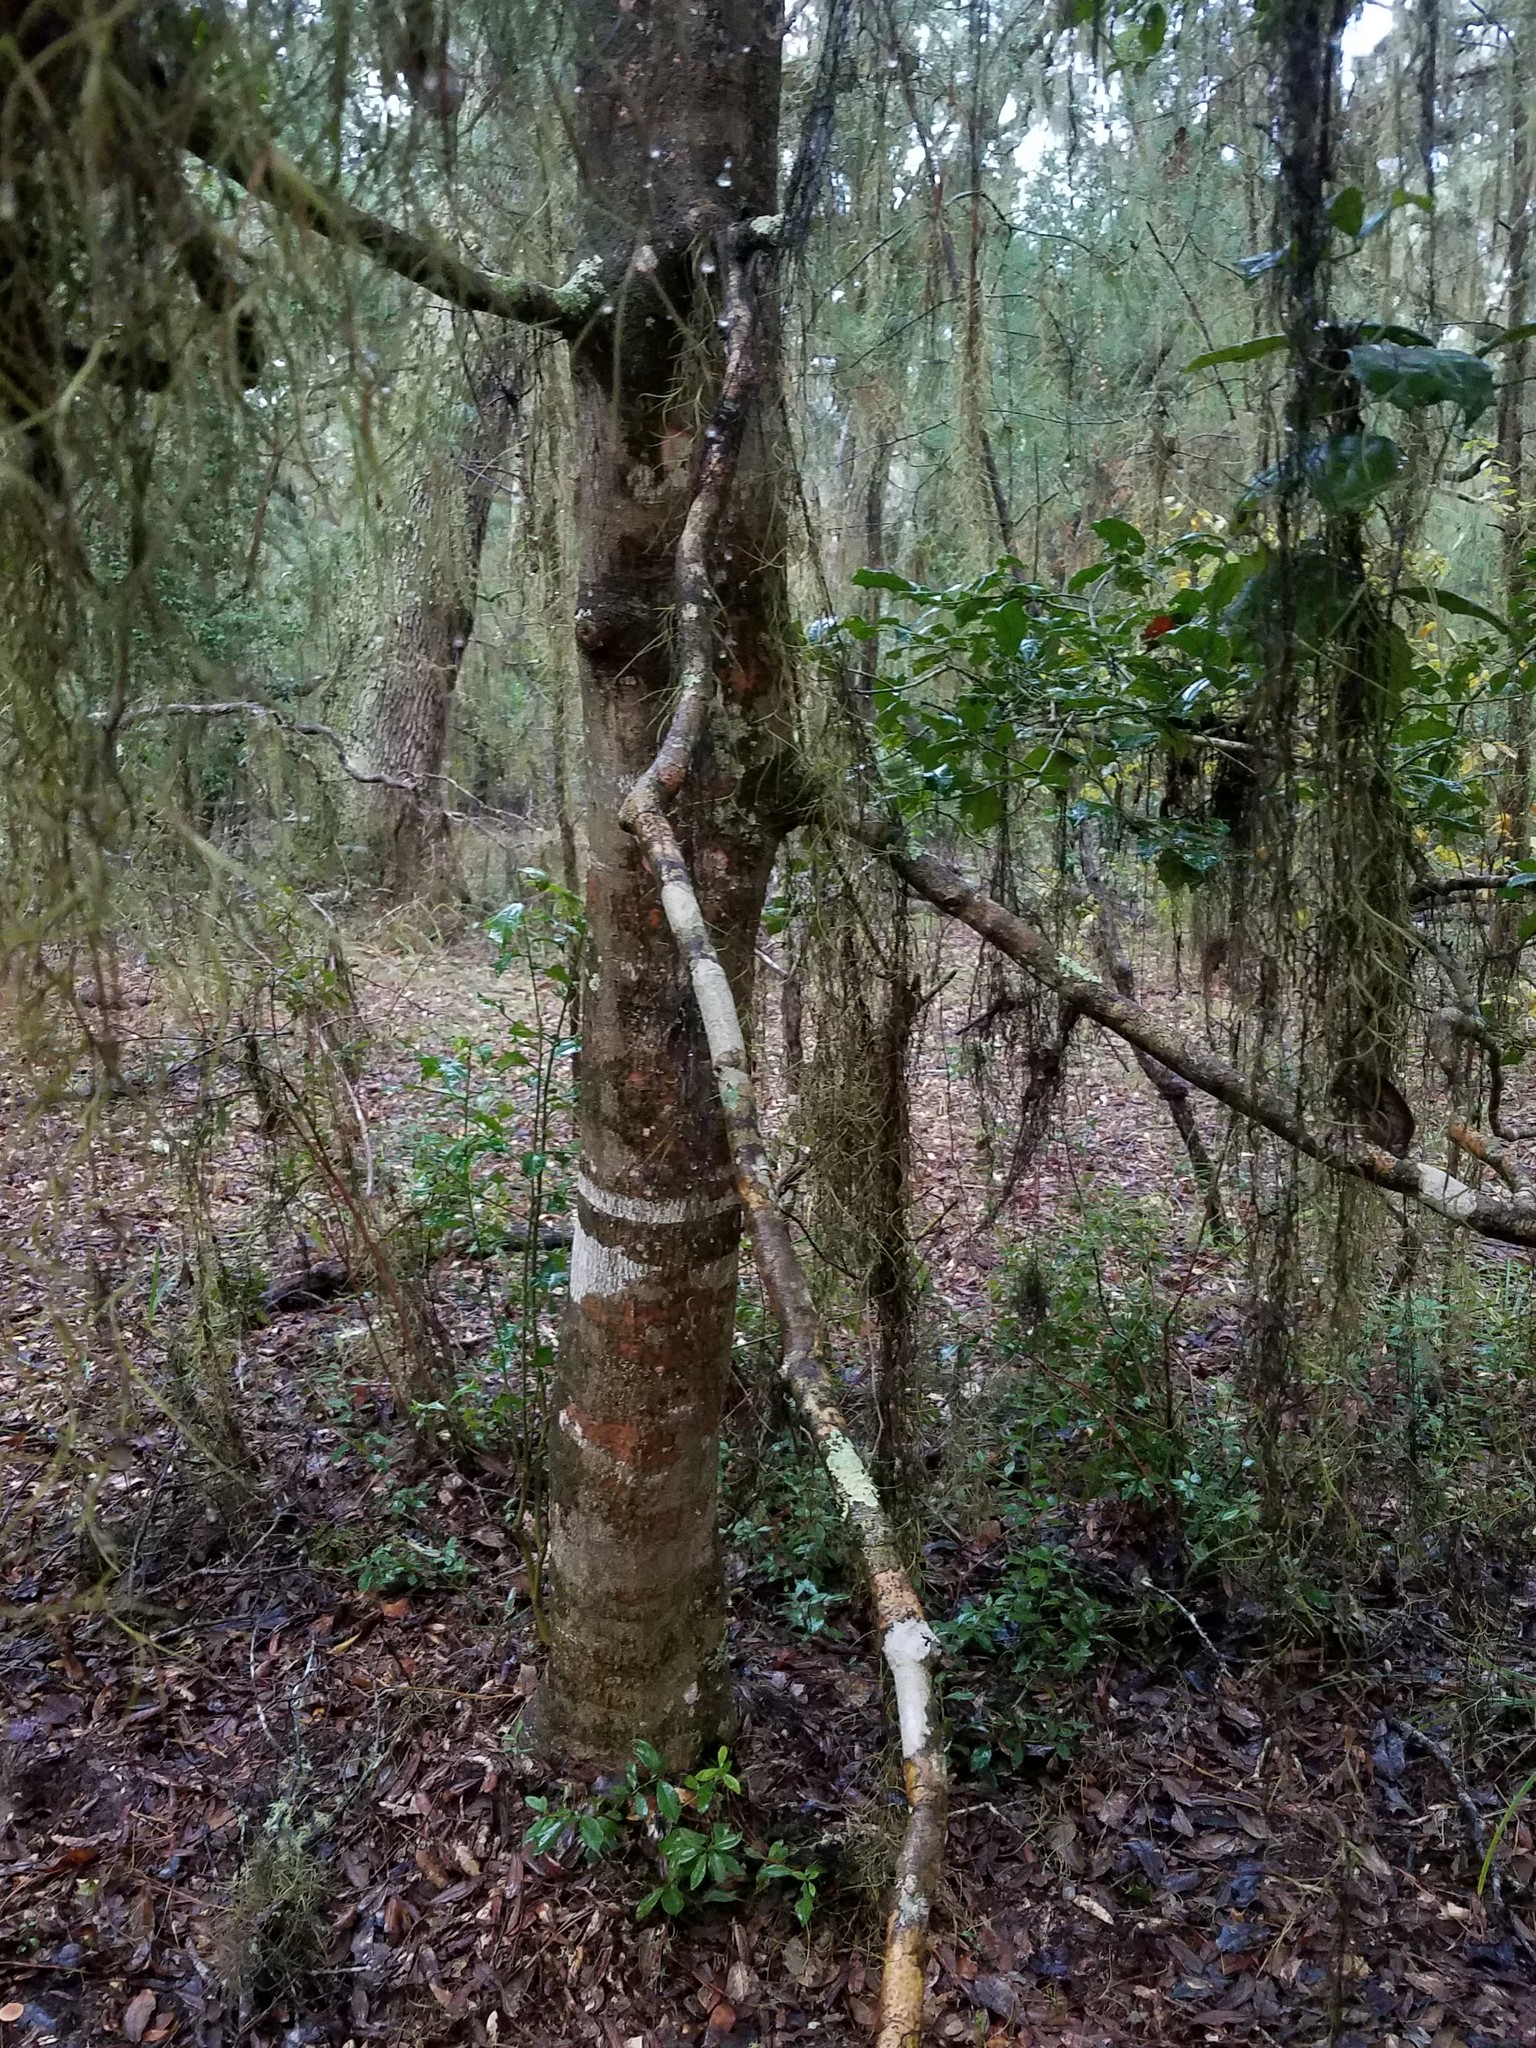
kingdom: Plantae
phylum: Tracheophyta
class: Magnoliopsida
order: Aquifoliales
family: Aquifoliaceae
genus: Ilex
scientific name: Ilex opaca
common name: American holly
